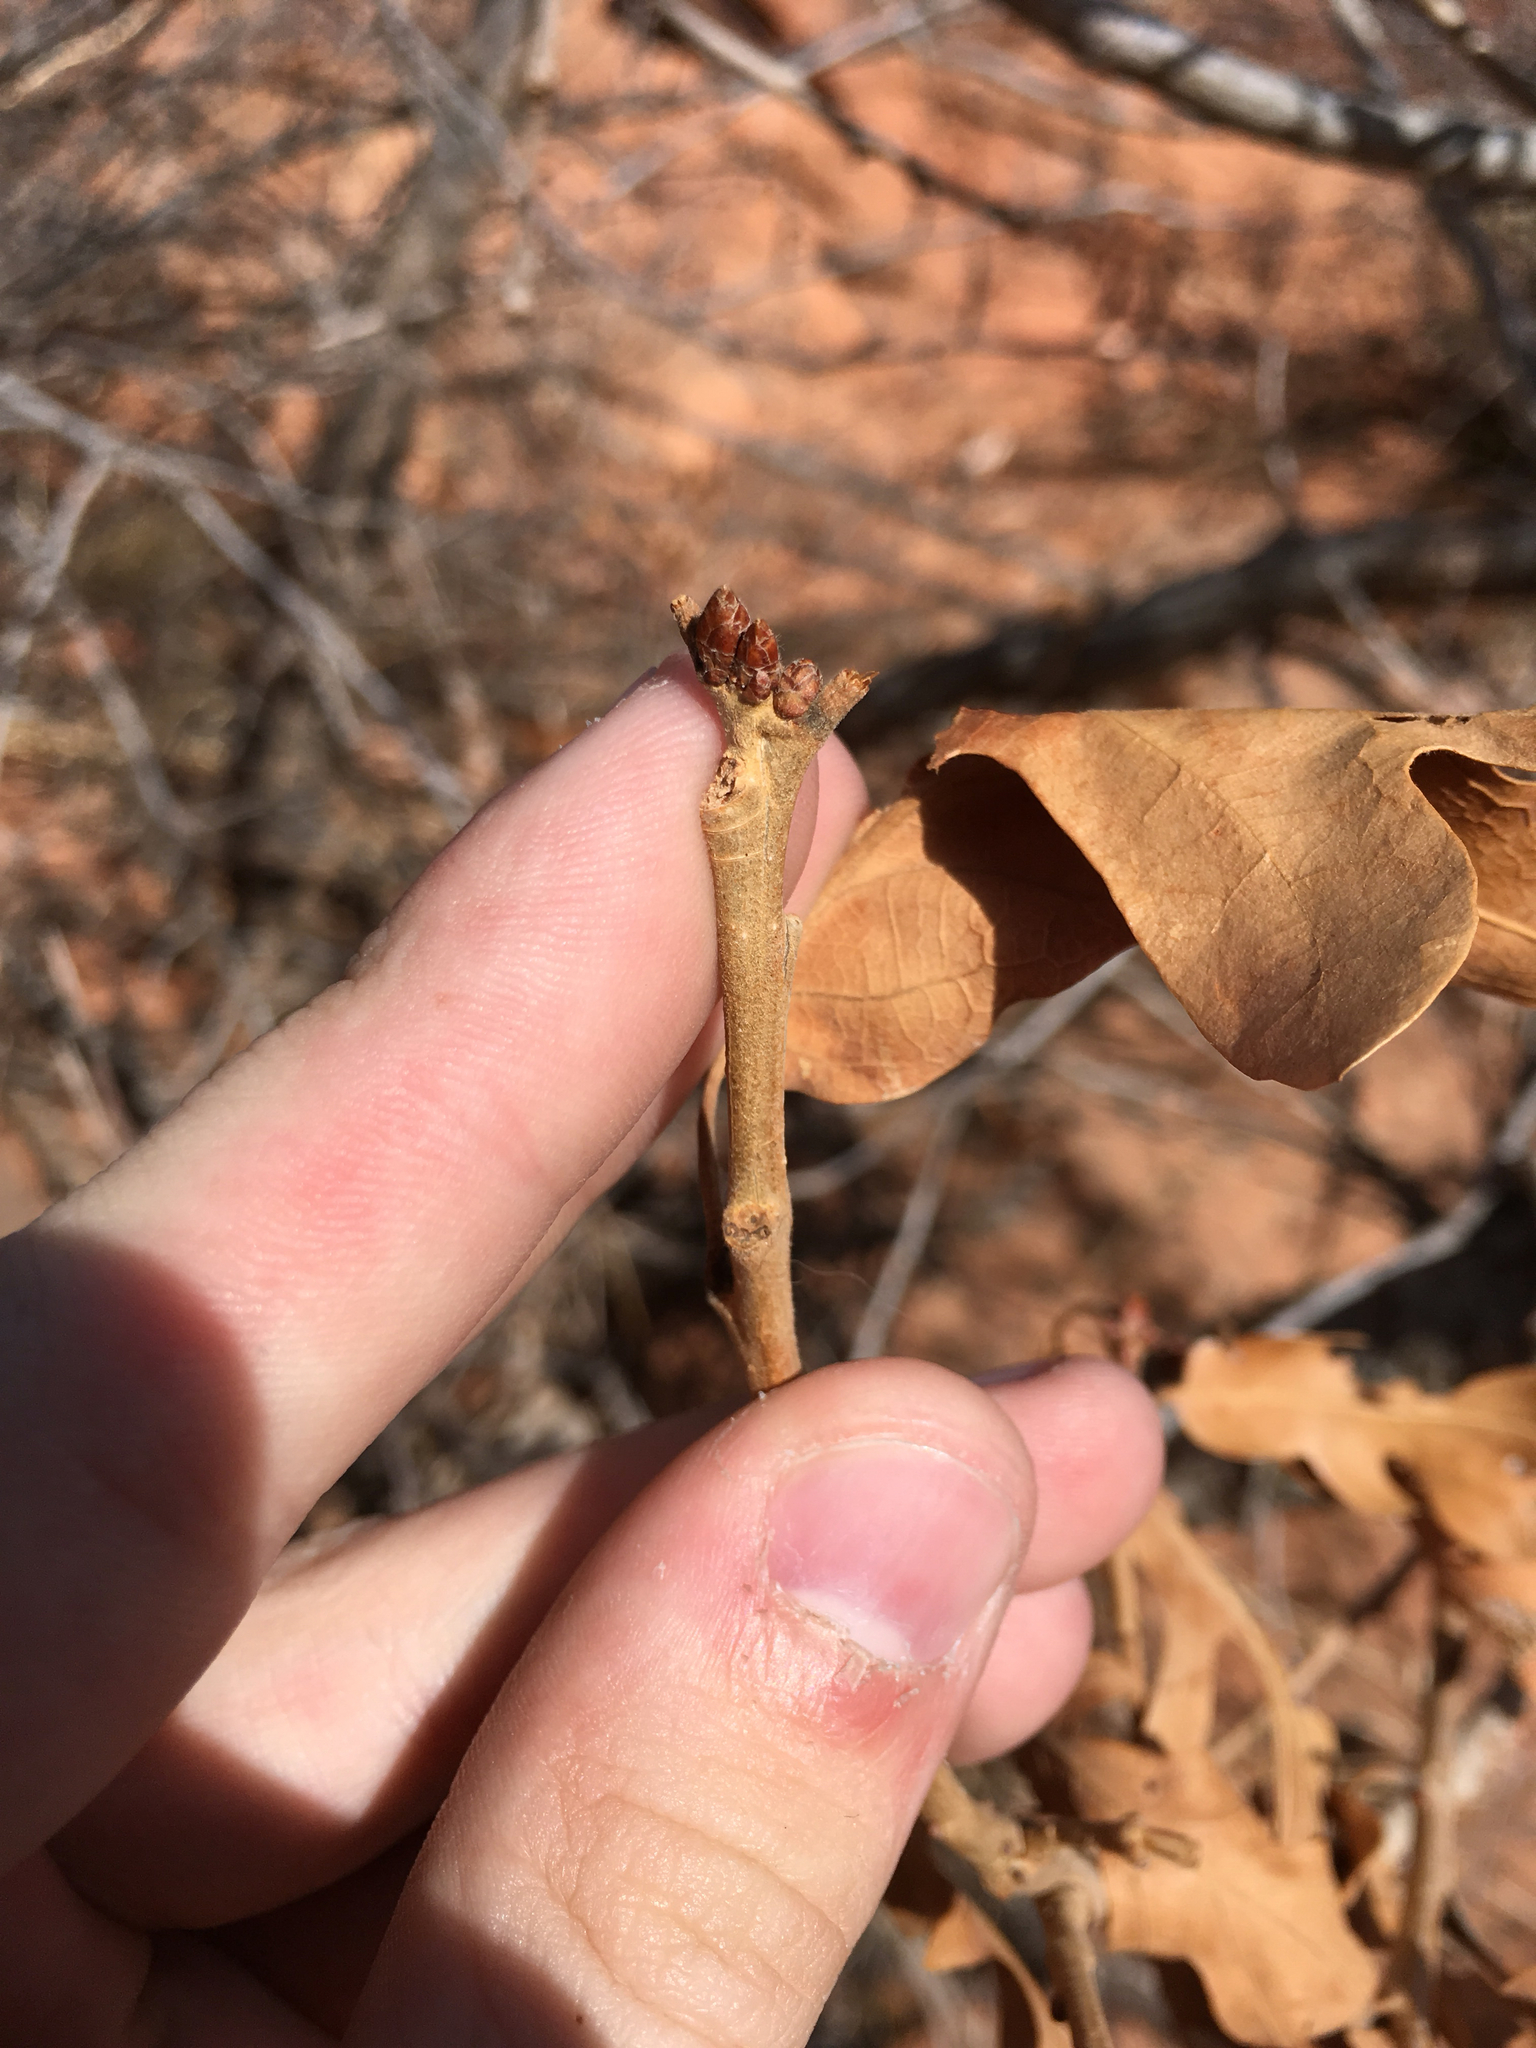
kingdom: Plantae
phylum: Tracheophyta
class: Magnoliopsida
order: Fagales
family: Fagaceae
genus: Quercus
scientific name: Quercus gambelii
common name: Gambel oak
